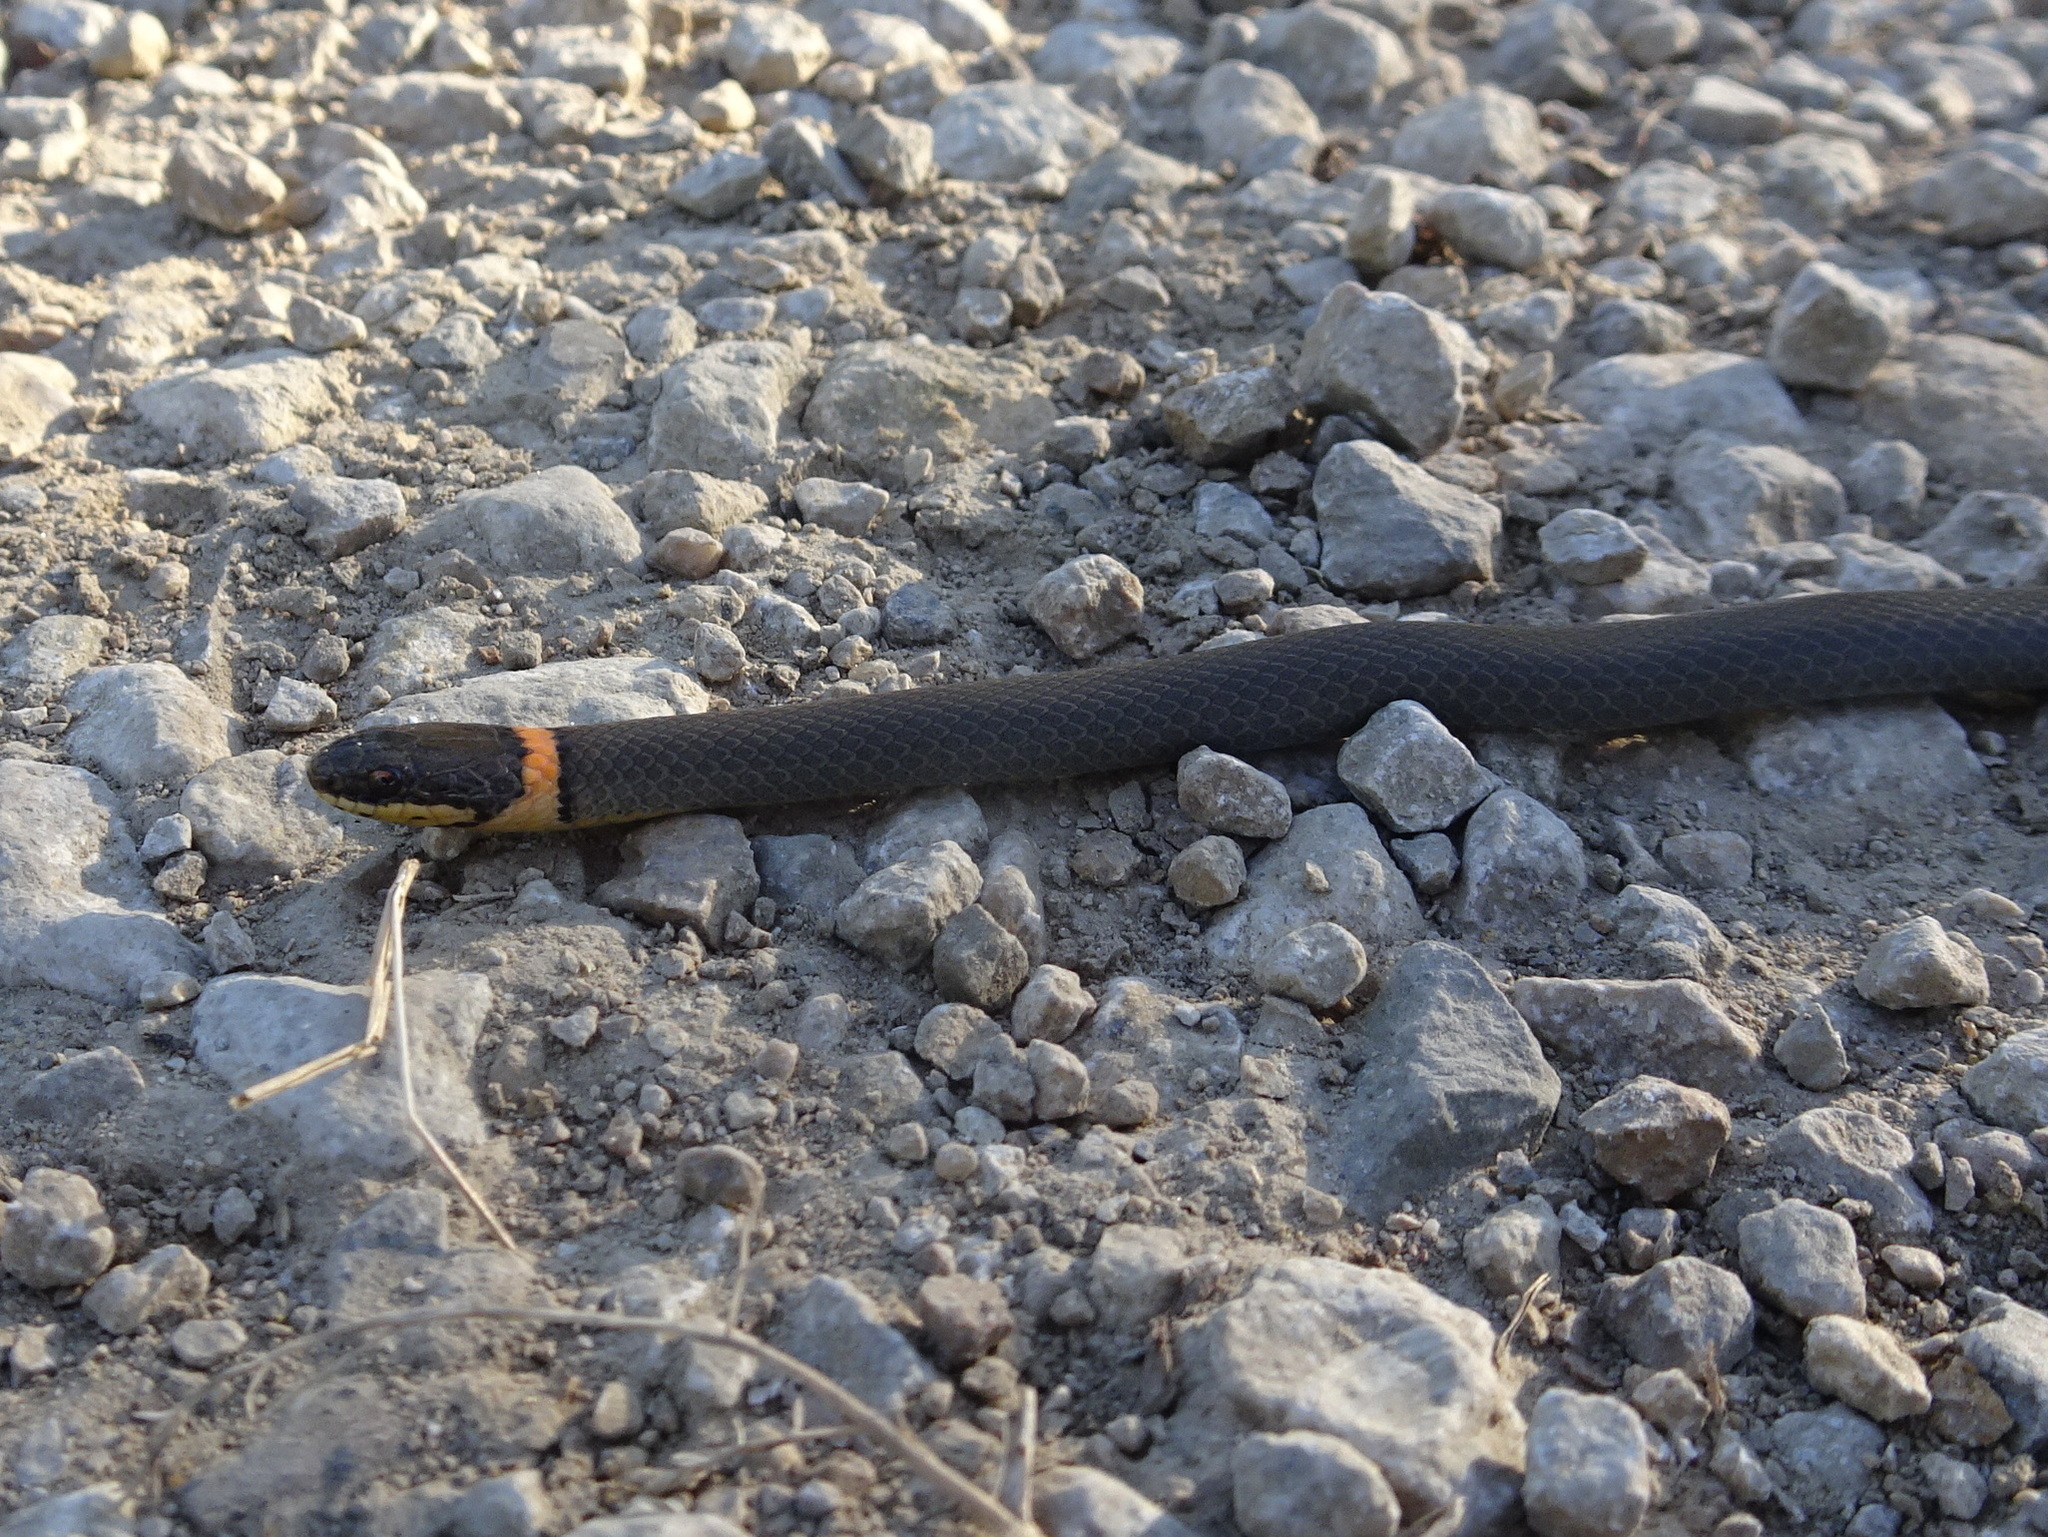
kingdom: Animalia
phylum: Chordata
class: Squamata
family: Colubridae
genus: Diadophis
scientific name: Diadophis punctatus
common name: Ringneck snake
